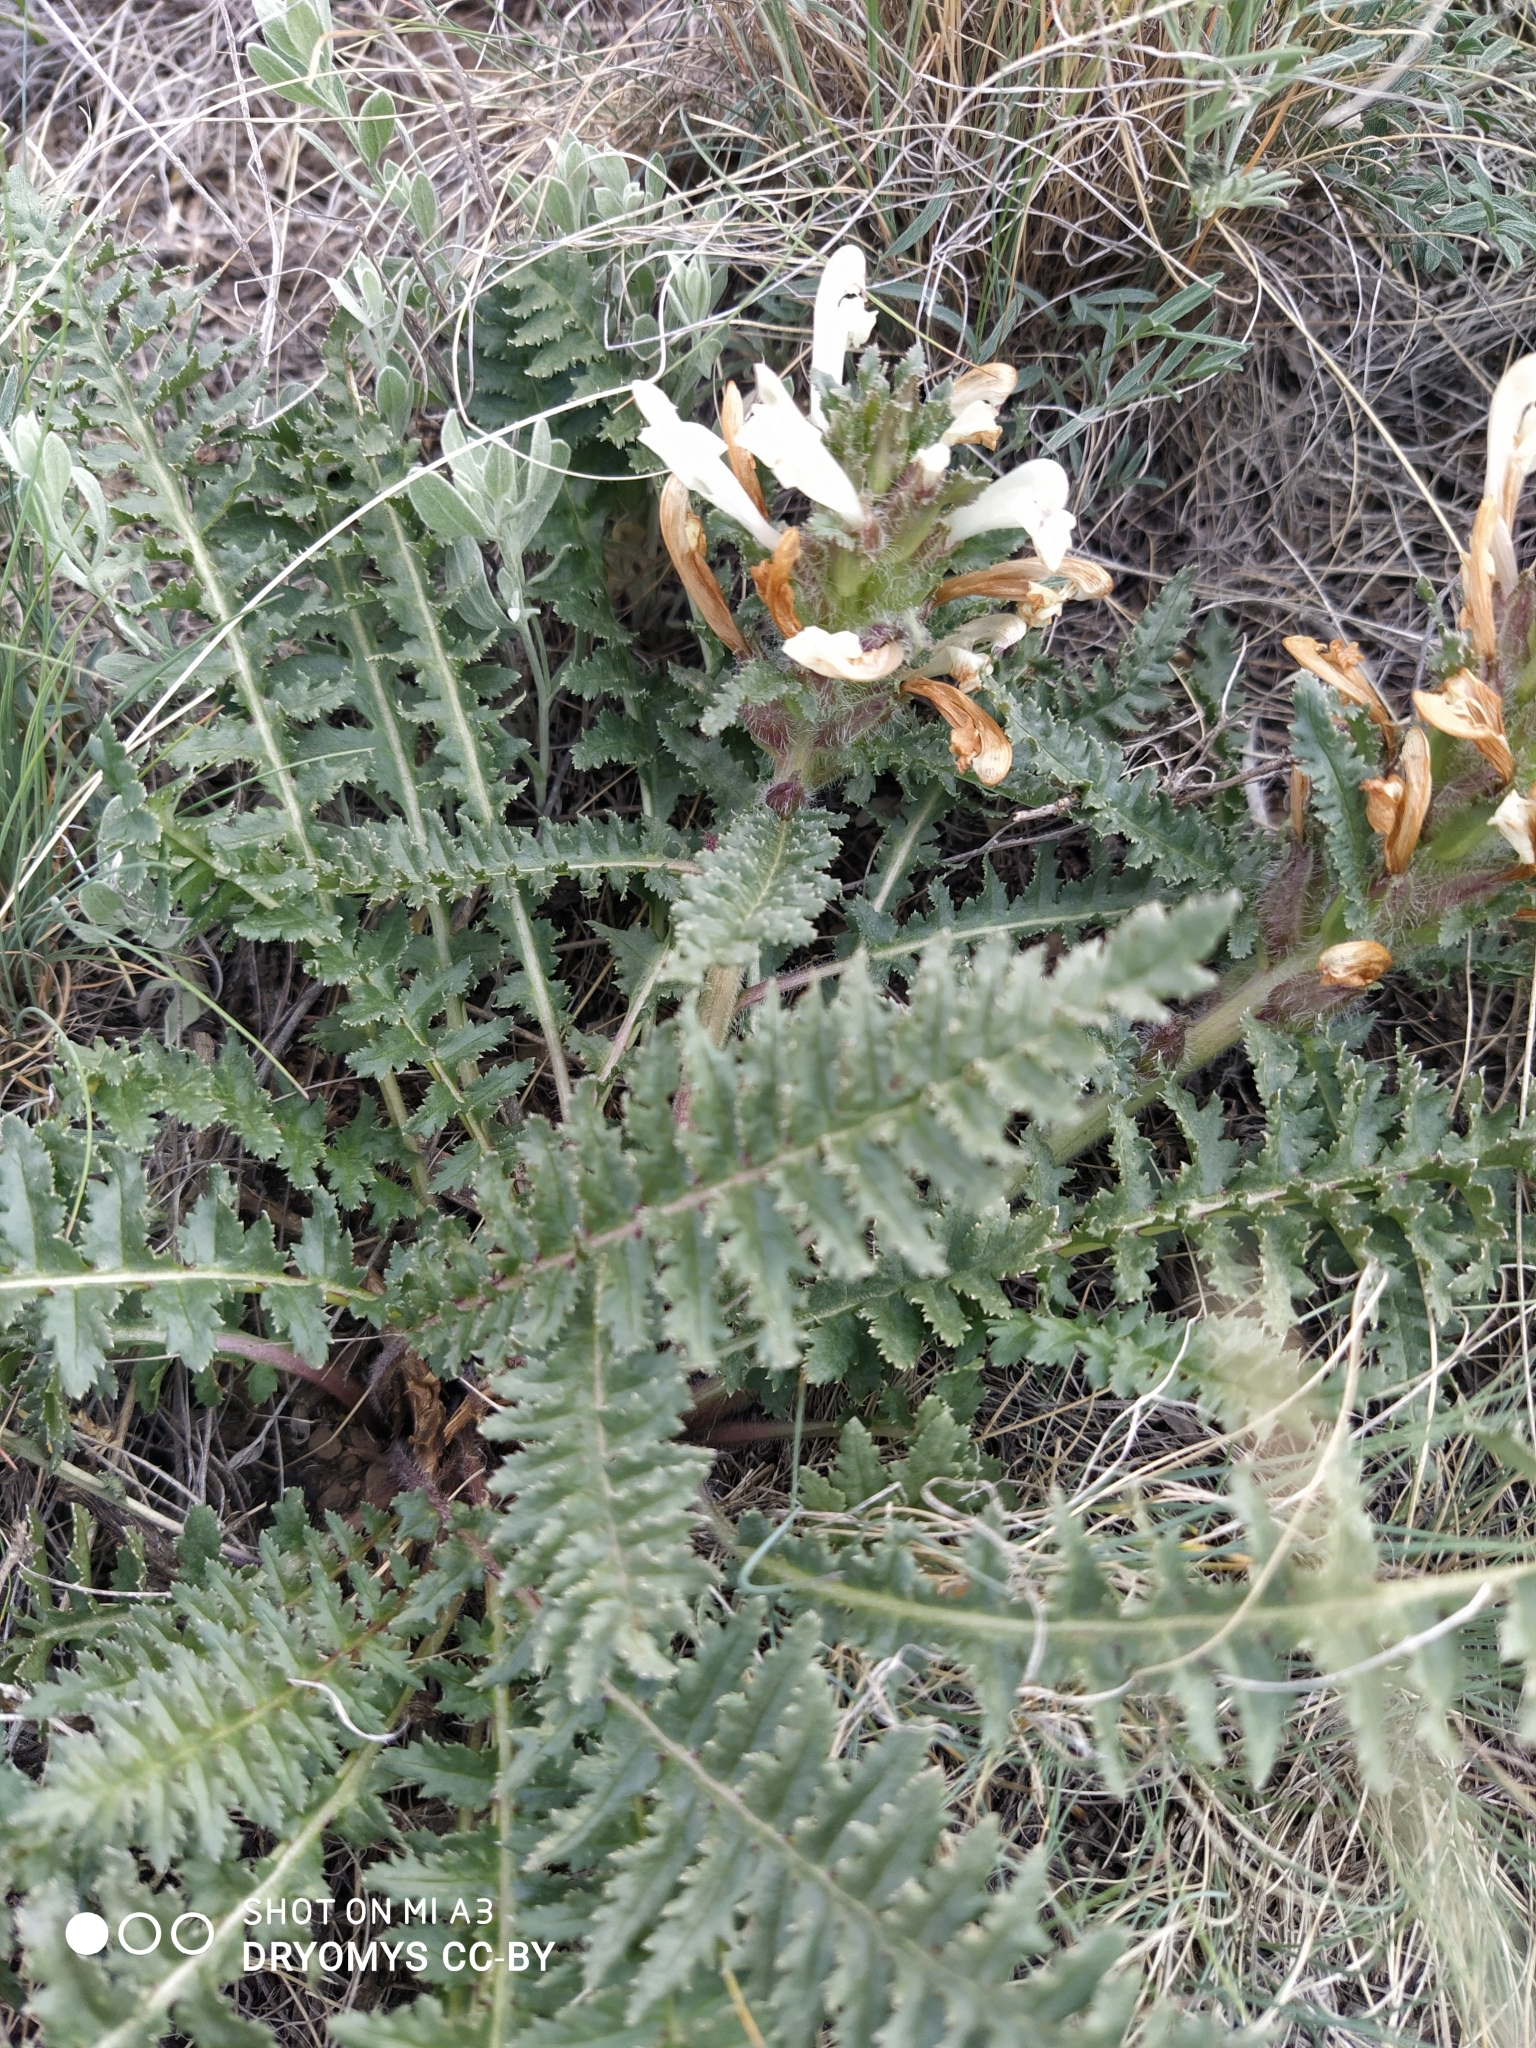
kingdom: Plantae
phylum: Tracheophyta
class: Magnoliopsida
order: Lamiales
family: Orobanchaceae
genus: Pedicularis
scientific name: Pedicularis physocalyx
